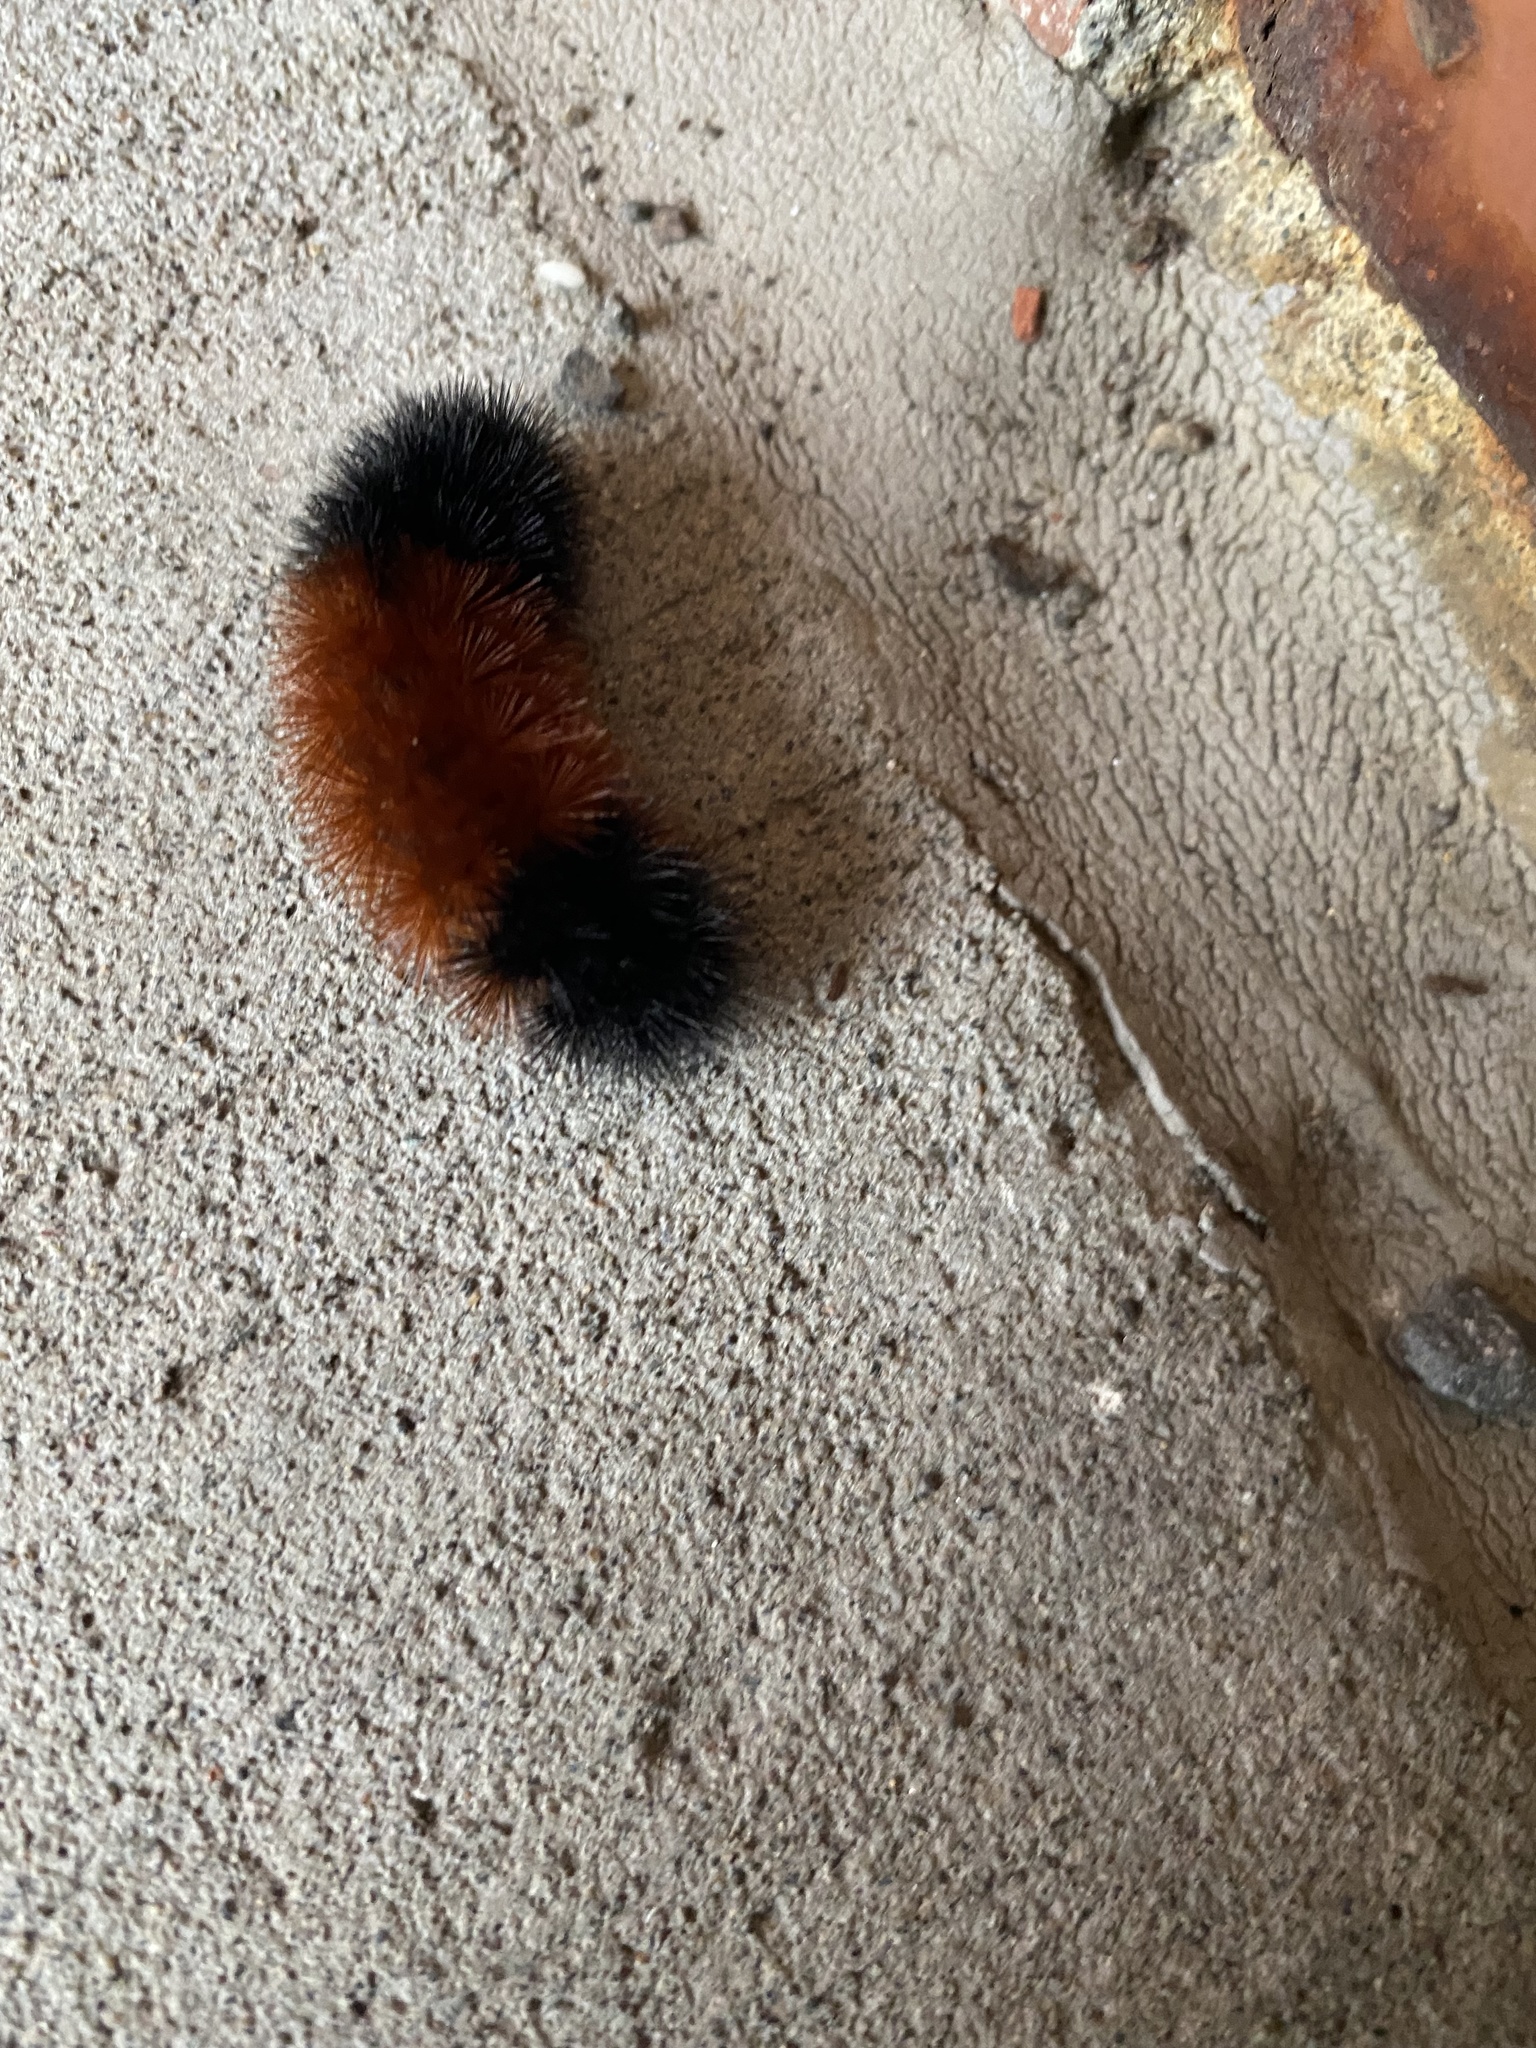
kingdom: Animalia
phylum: Arthropoda
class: Insecta
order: Lepidoptera
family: Erebidae
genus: Pyrrharctia
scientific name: Pyrrharctia isabella
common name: Isabella tiger moth
